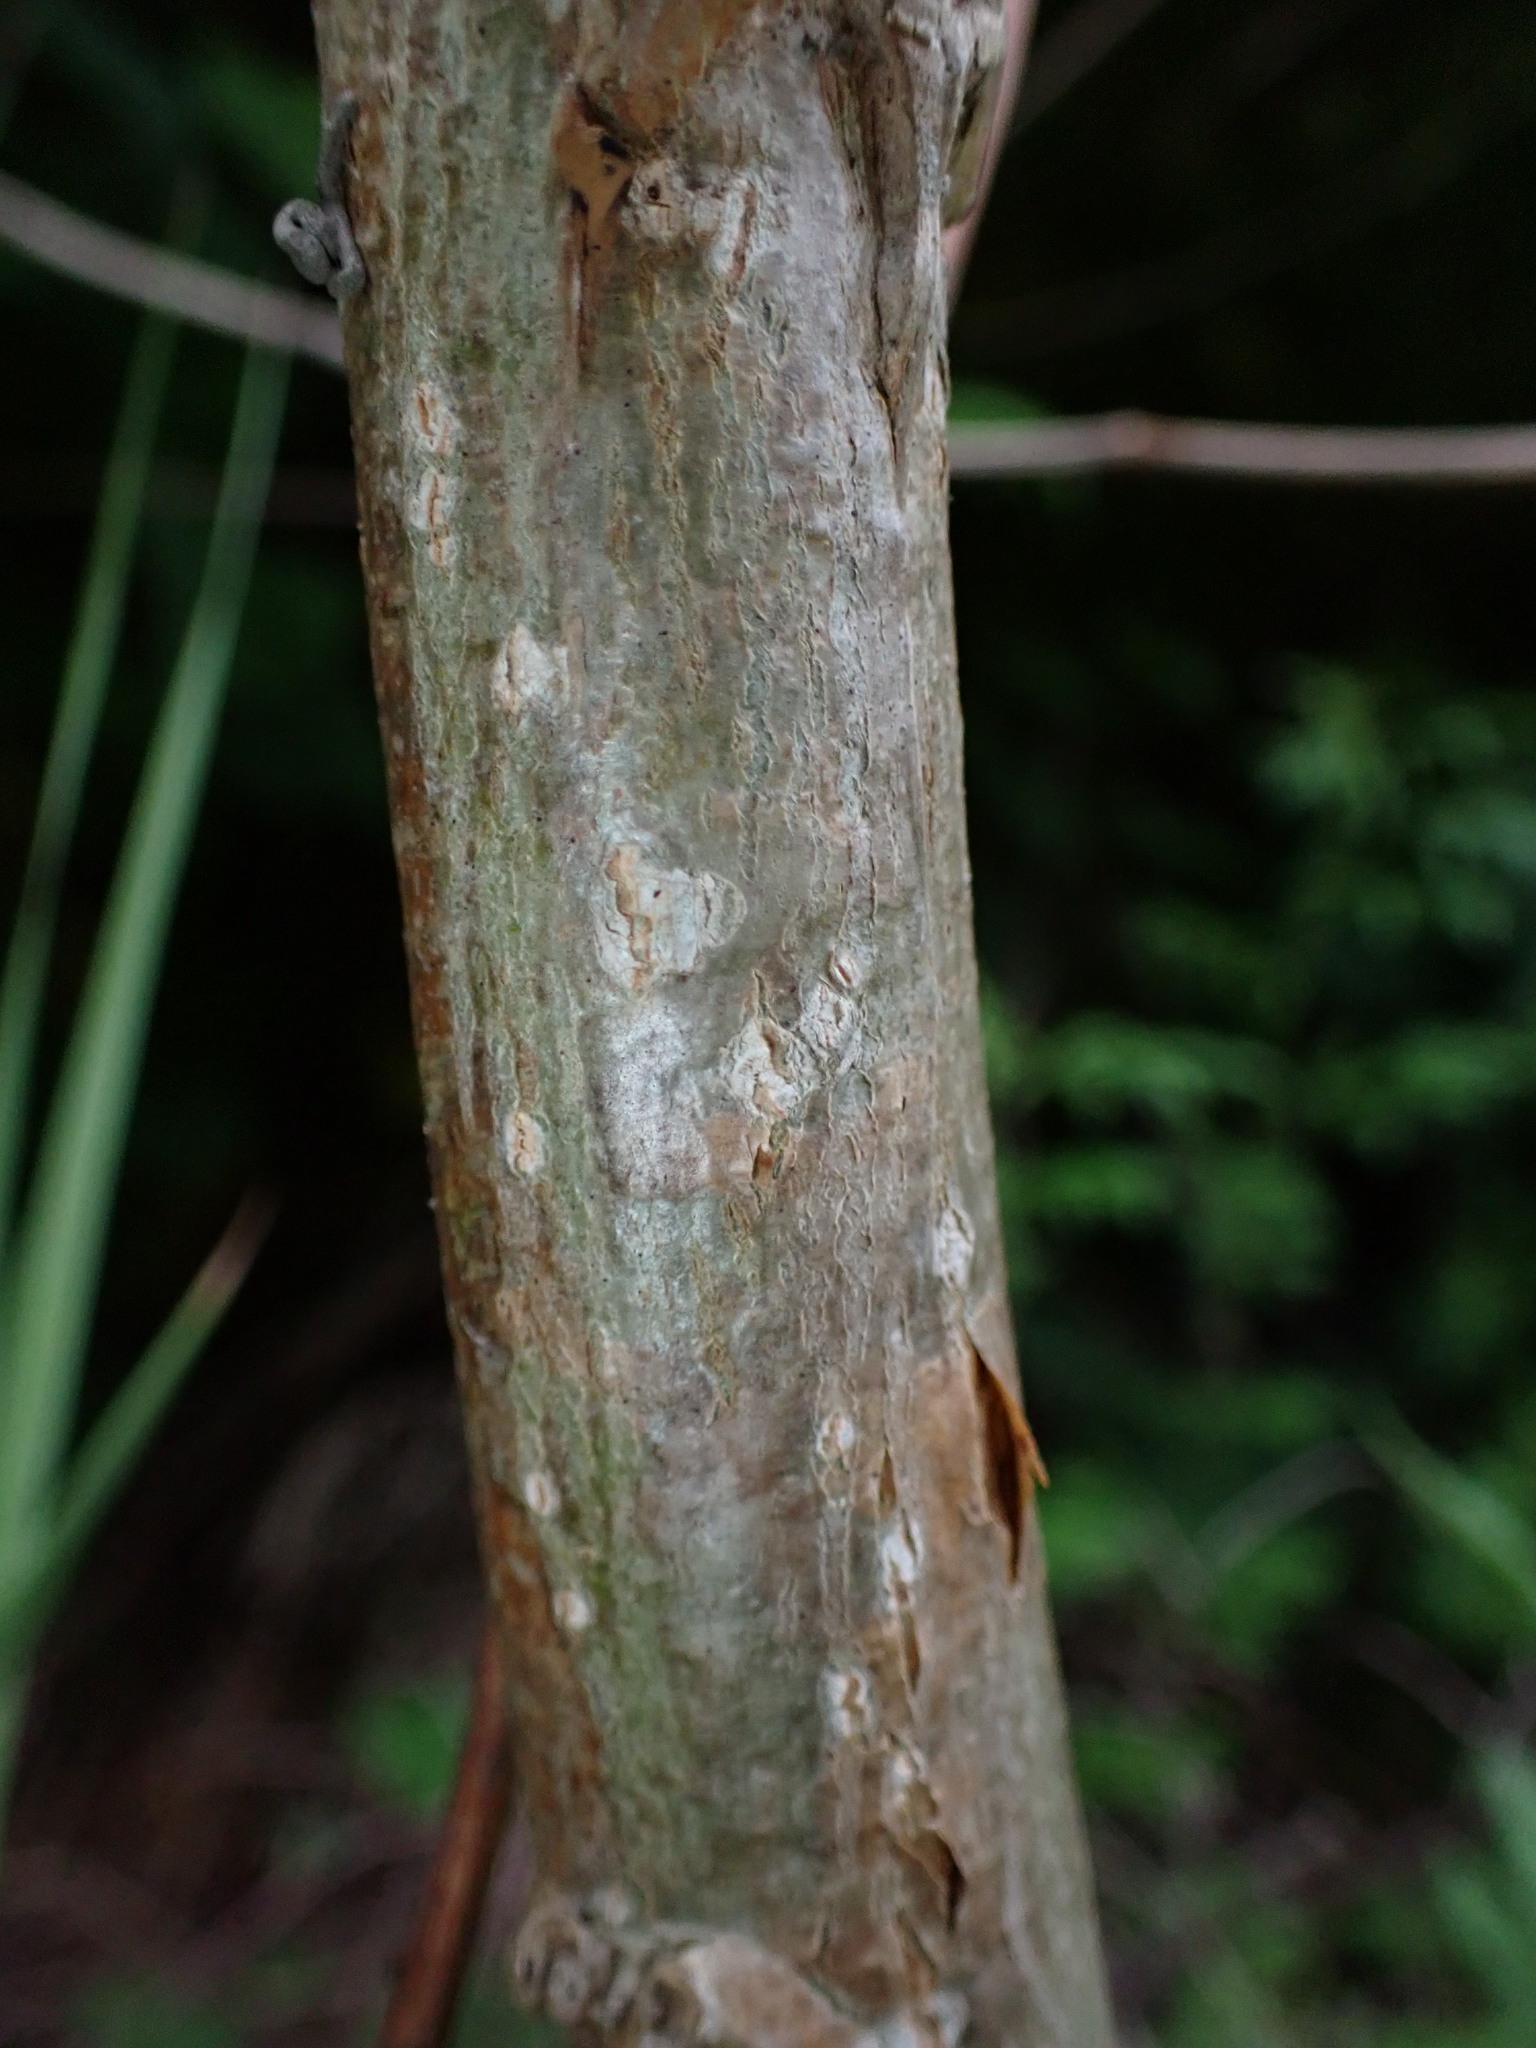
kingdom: Plantae
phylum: Tracheophyta
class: Magnoliopsida
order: Malpighiales
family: Salicaceae
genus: Populus
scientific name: Populus deltoides
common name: Eastern cottonwood
